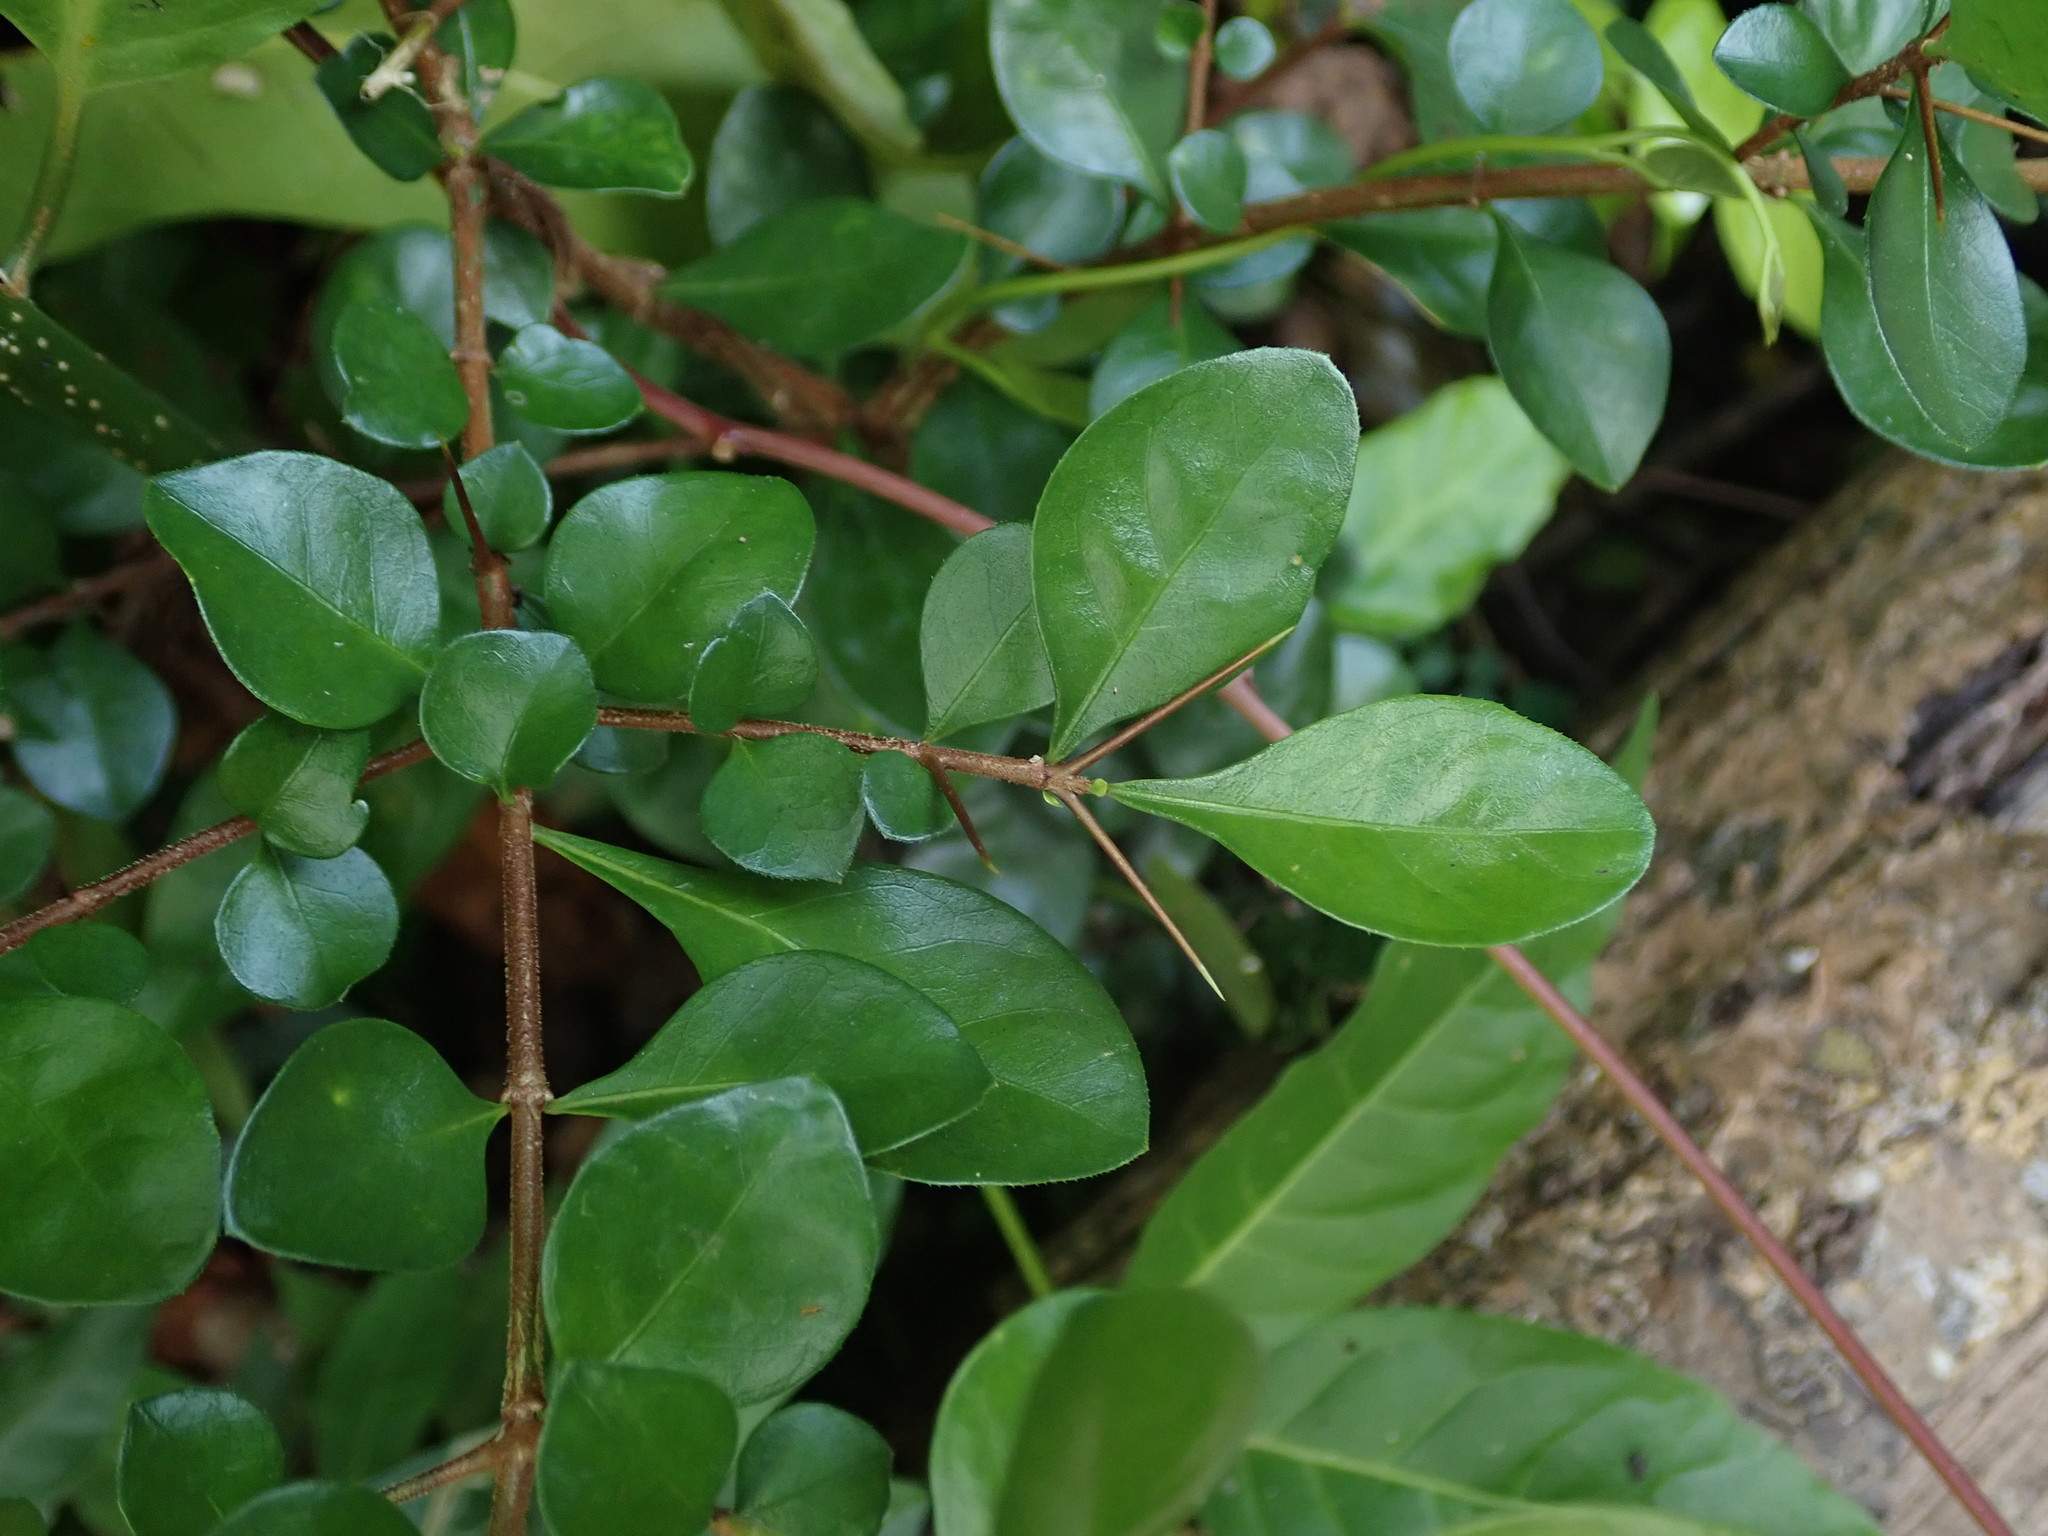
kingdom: Plantae
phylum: Tracheophyta
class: Magnoliopsida
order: Gentianales
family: Rubiaceae
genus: Randia
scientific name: Randia aculeata
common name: Inkberry
